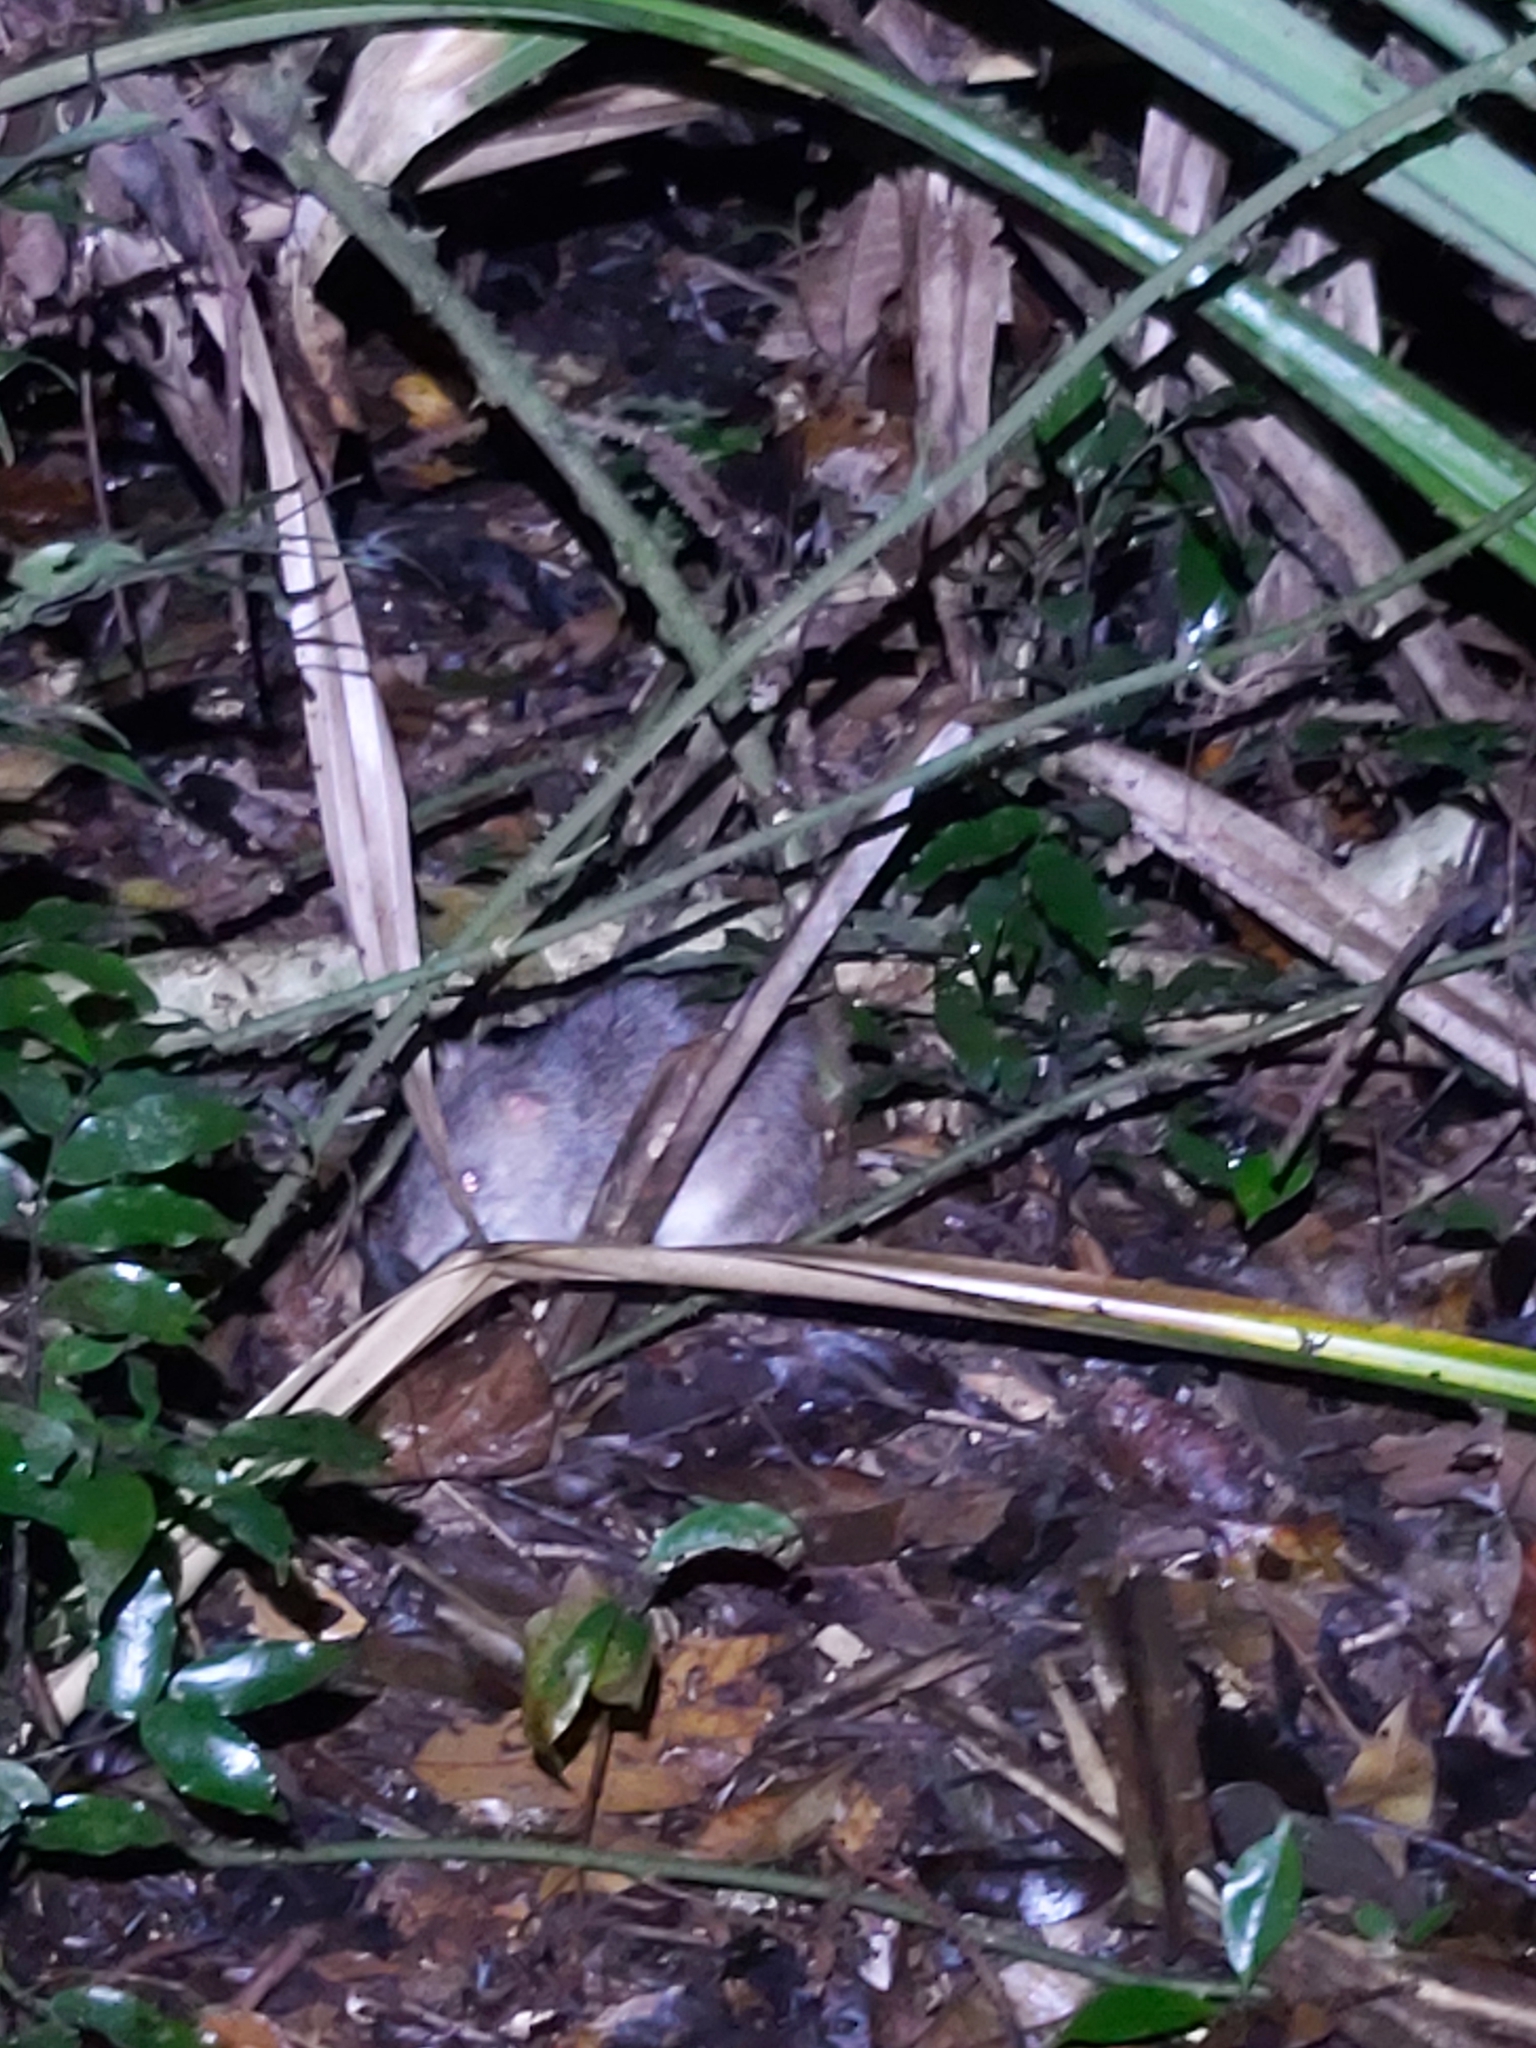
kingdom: Animalia
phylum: Chordata
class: Mammalia
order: Peramelemorphia
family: Peramelidae
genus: Perameles
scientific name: Perameles pallescens
